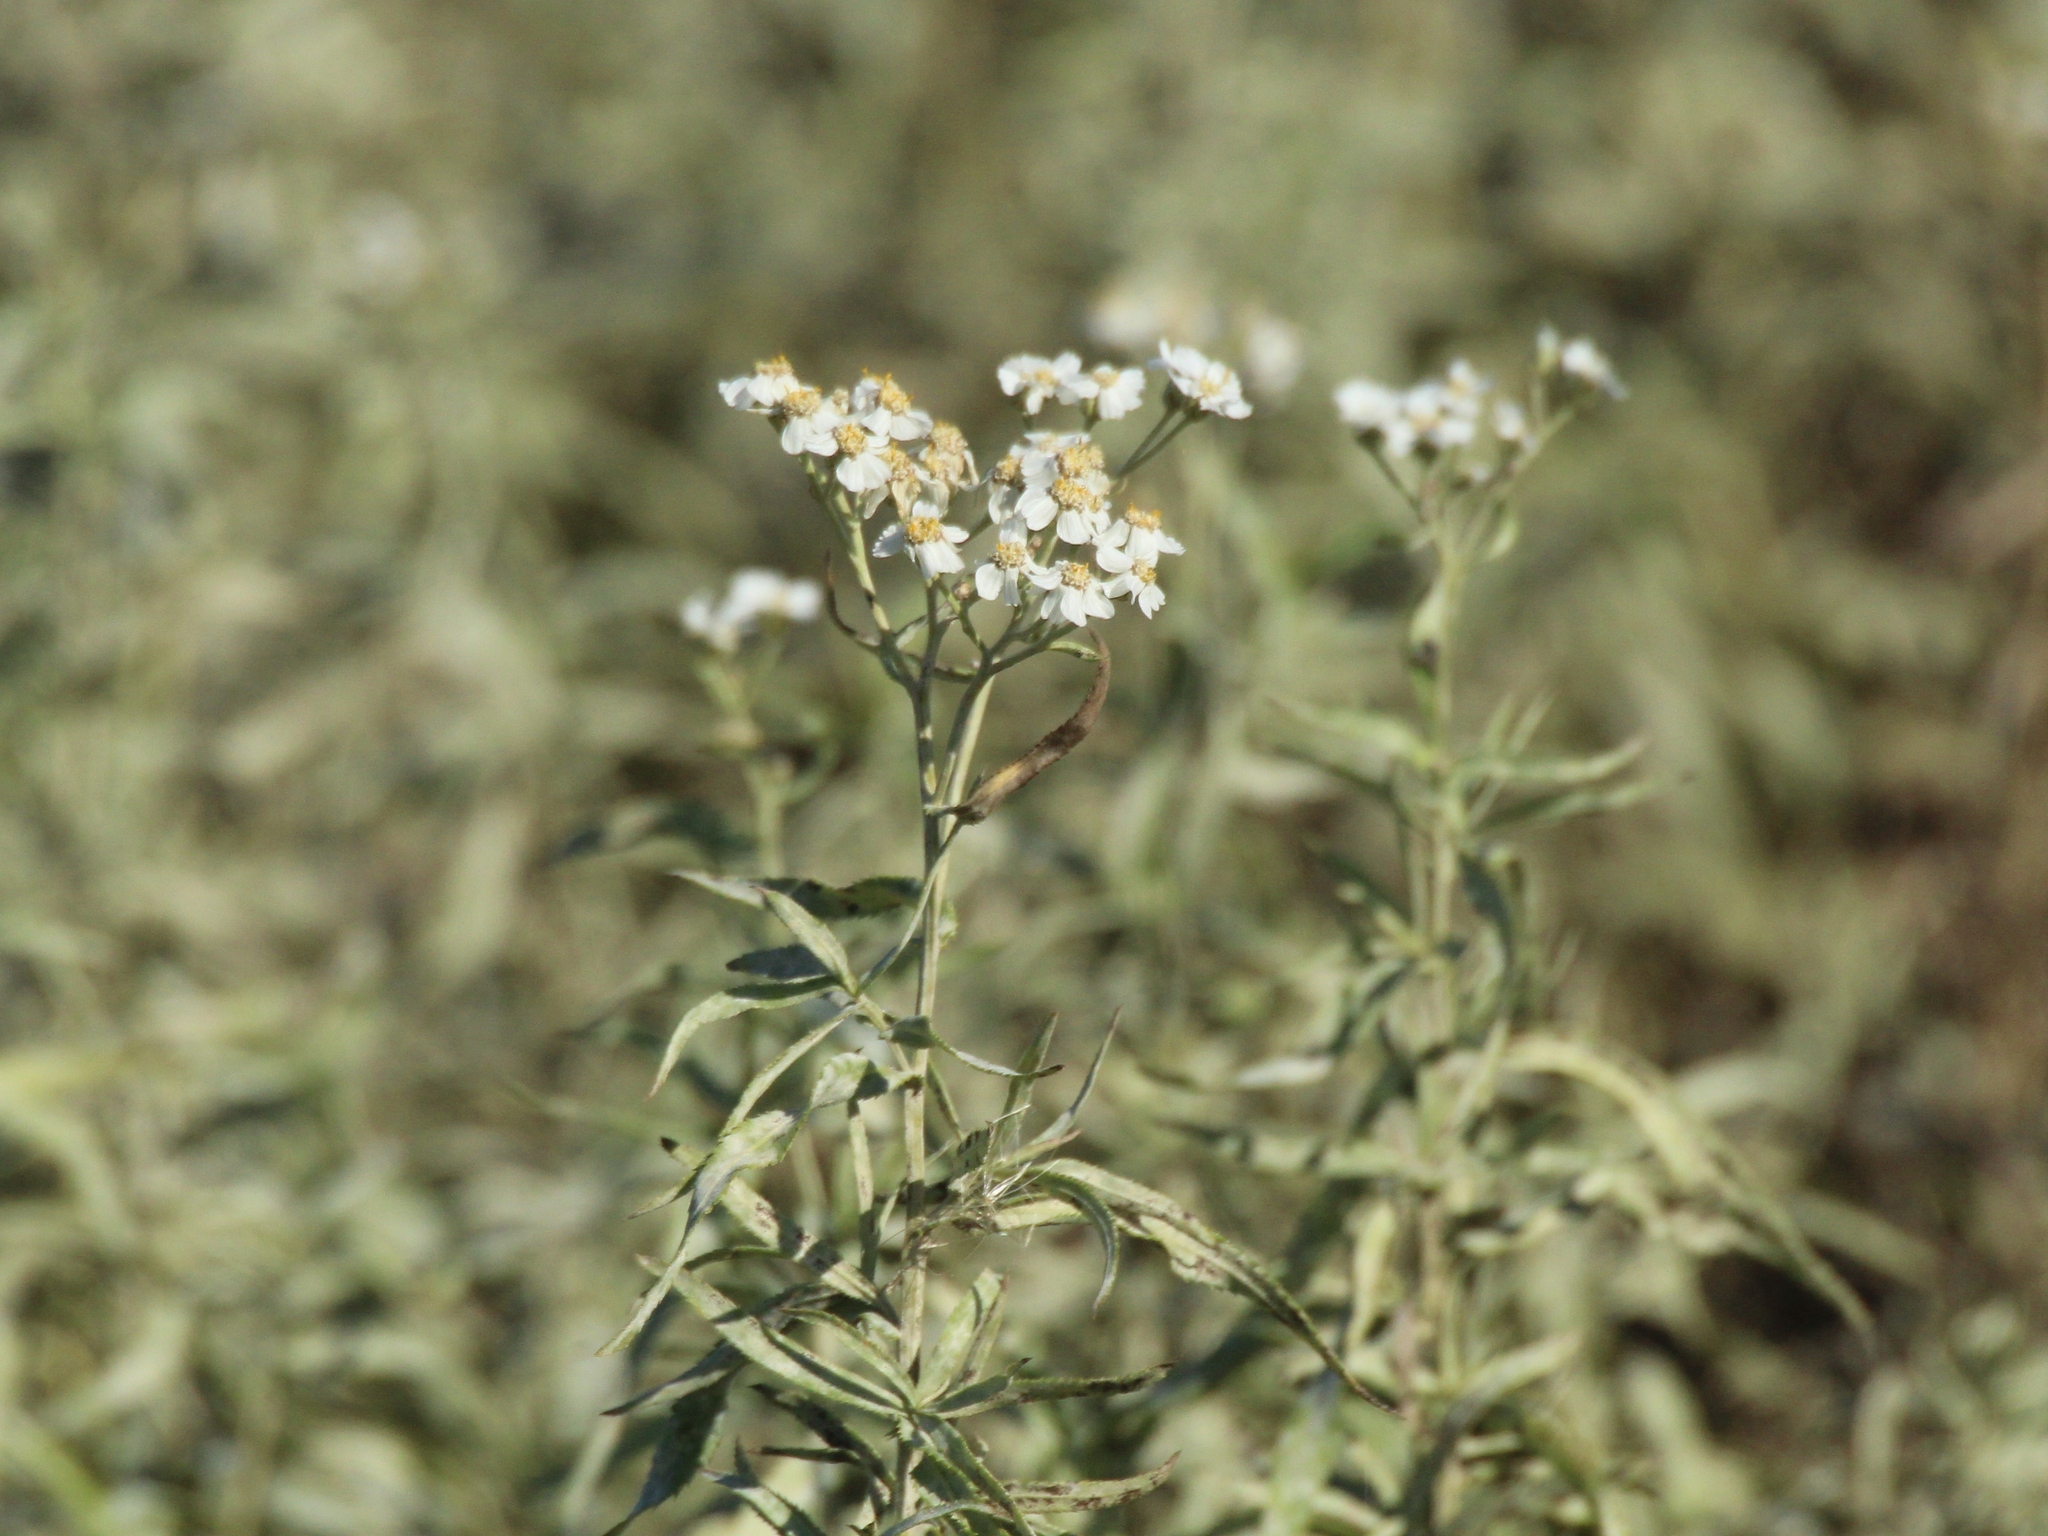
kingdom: Plantae
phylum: Tracheophyta
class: Magnoliopsida
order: Asterales
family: Asteraceae
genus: Achillea
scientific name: Achillea salicifolia
